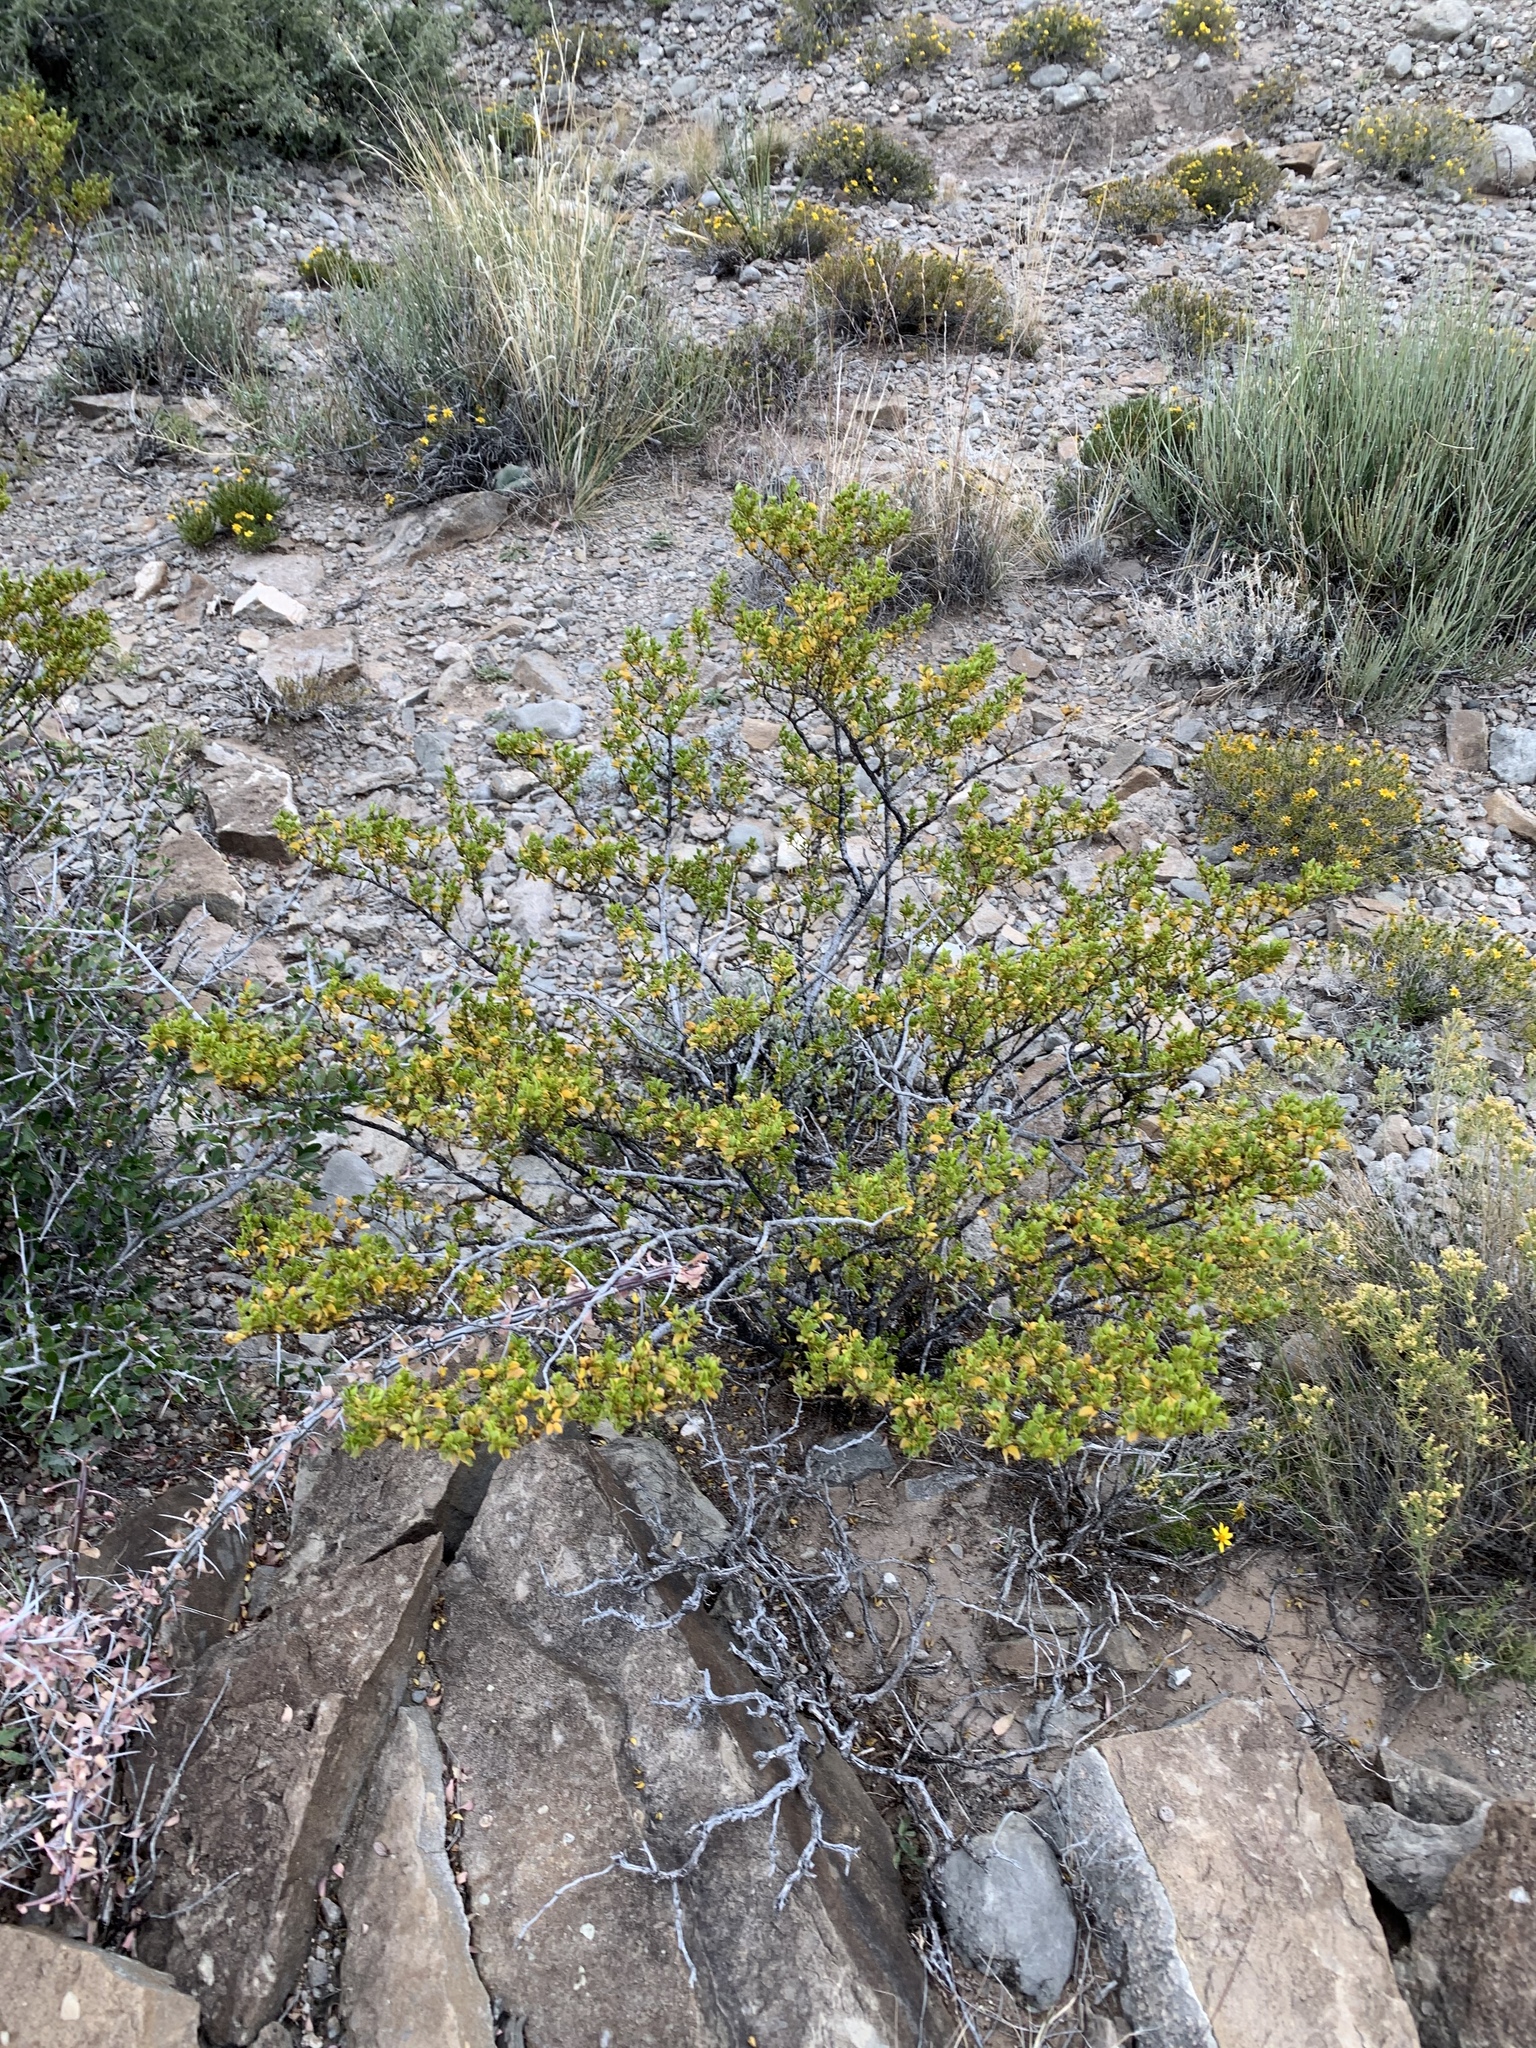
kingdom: Plantae
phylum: Tracheophyta
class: Magnoliopsida
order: Zygophyllales
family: Zygophyllaceae
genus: Larrea
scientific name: Larrea tridentata
